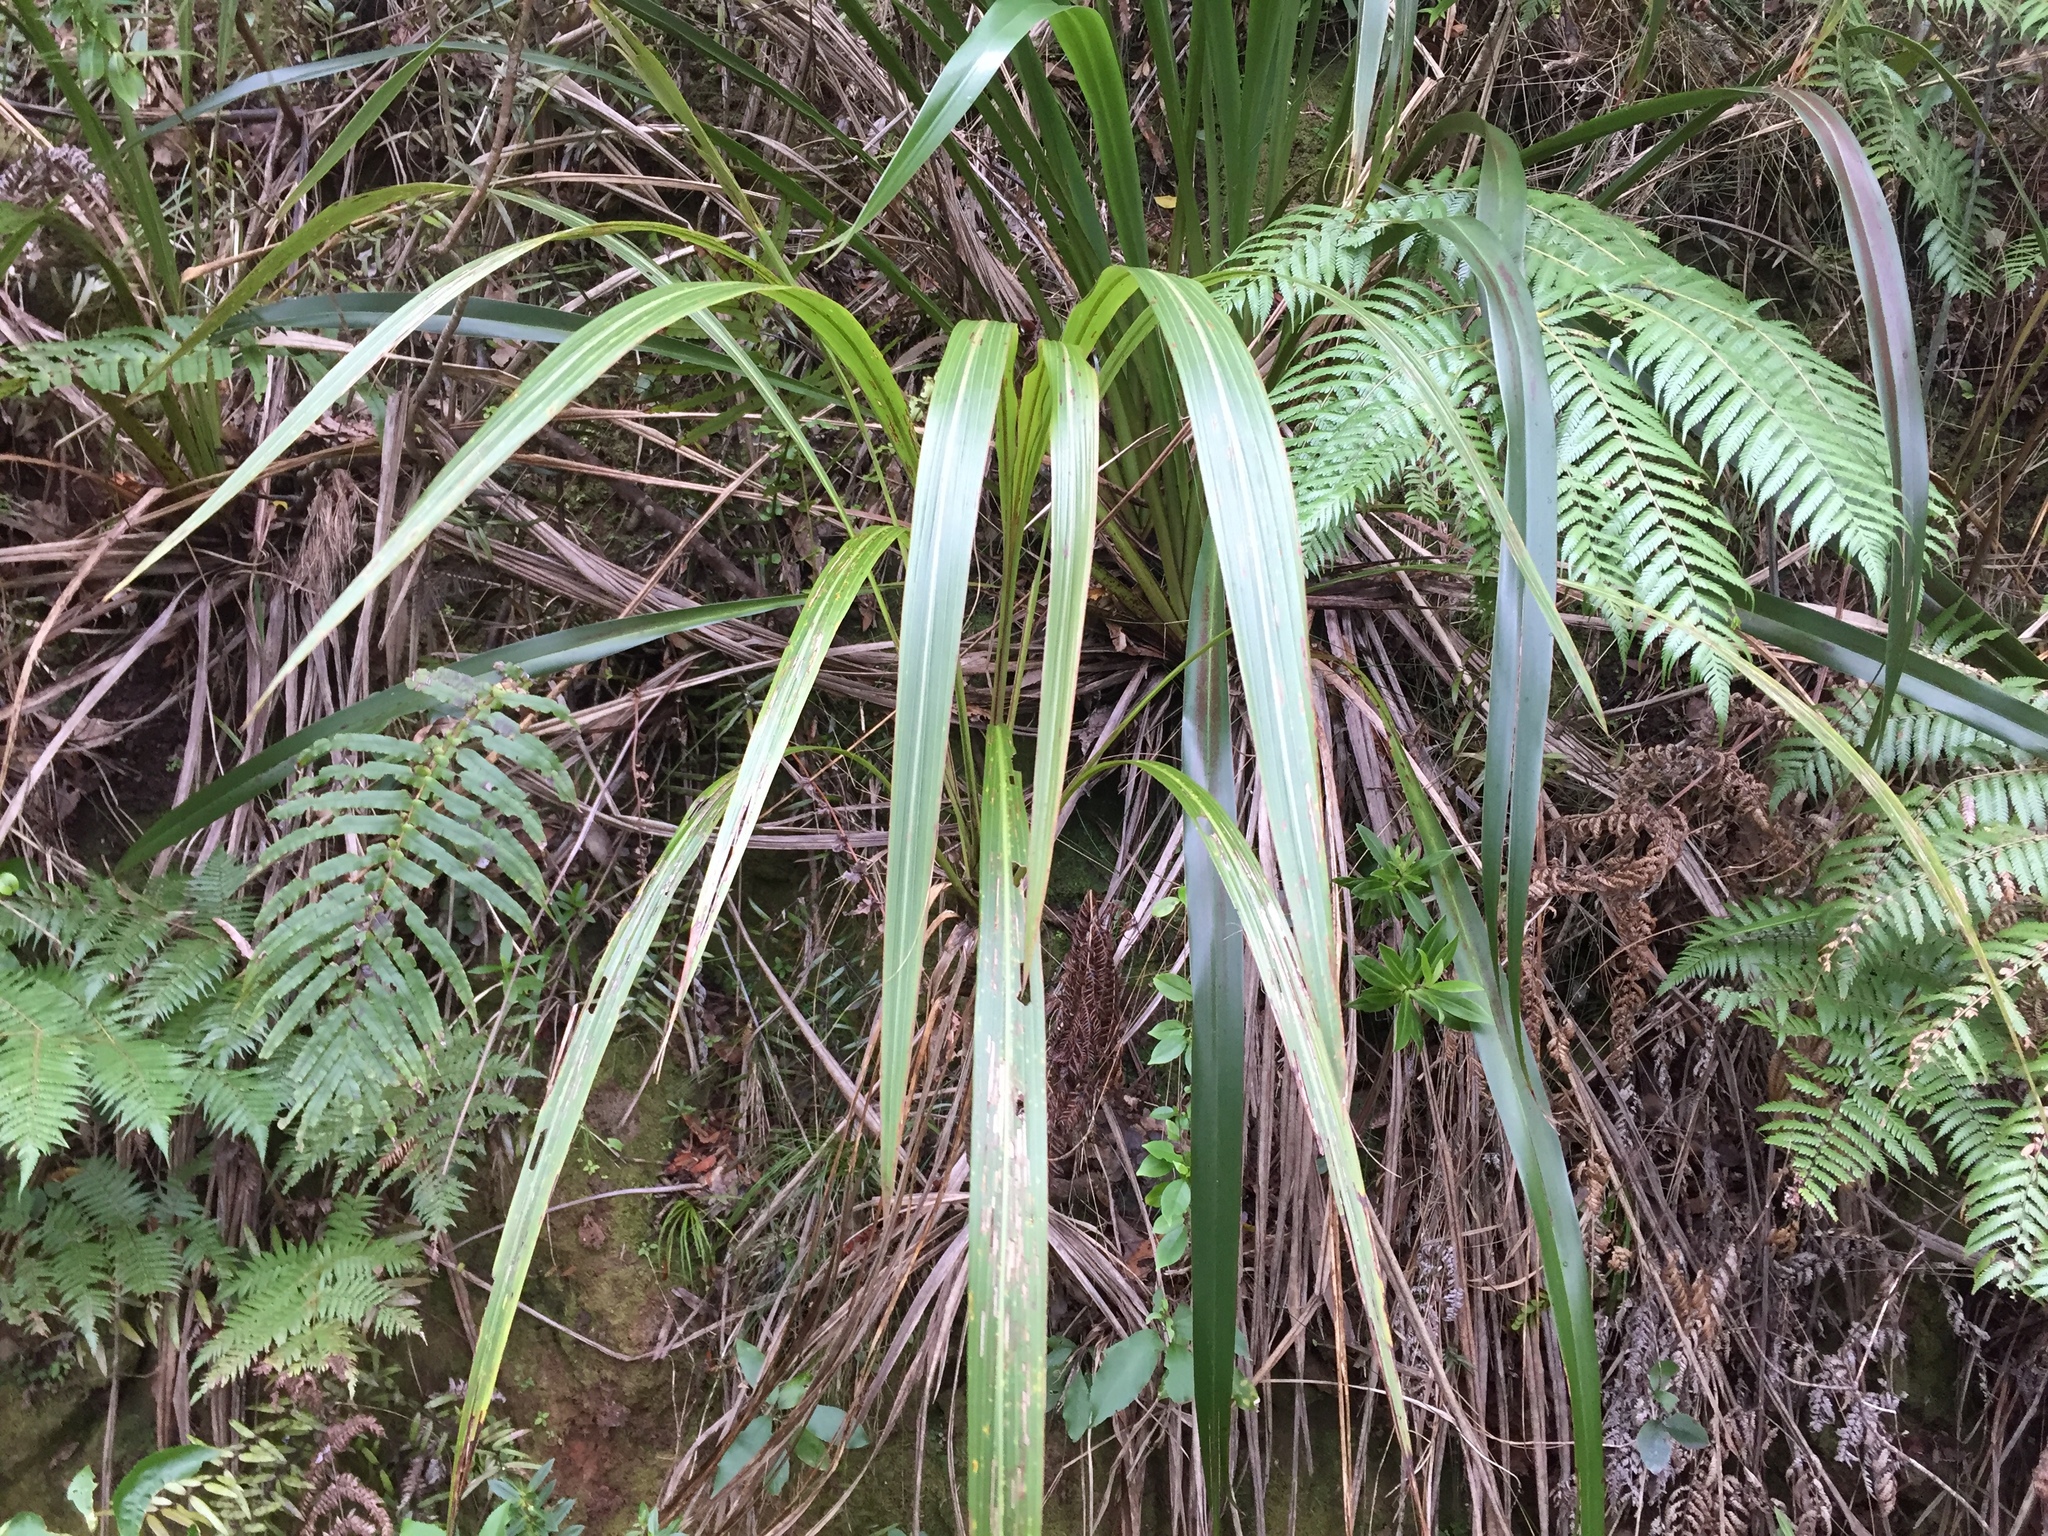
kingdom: Plantae
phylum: Tracheophyta
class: Liliopsida
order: Asparagales
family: Asparagaceae
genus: Cordyline
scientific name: Cordyline banksii
